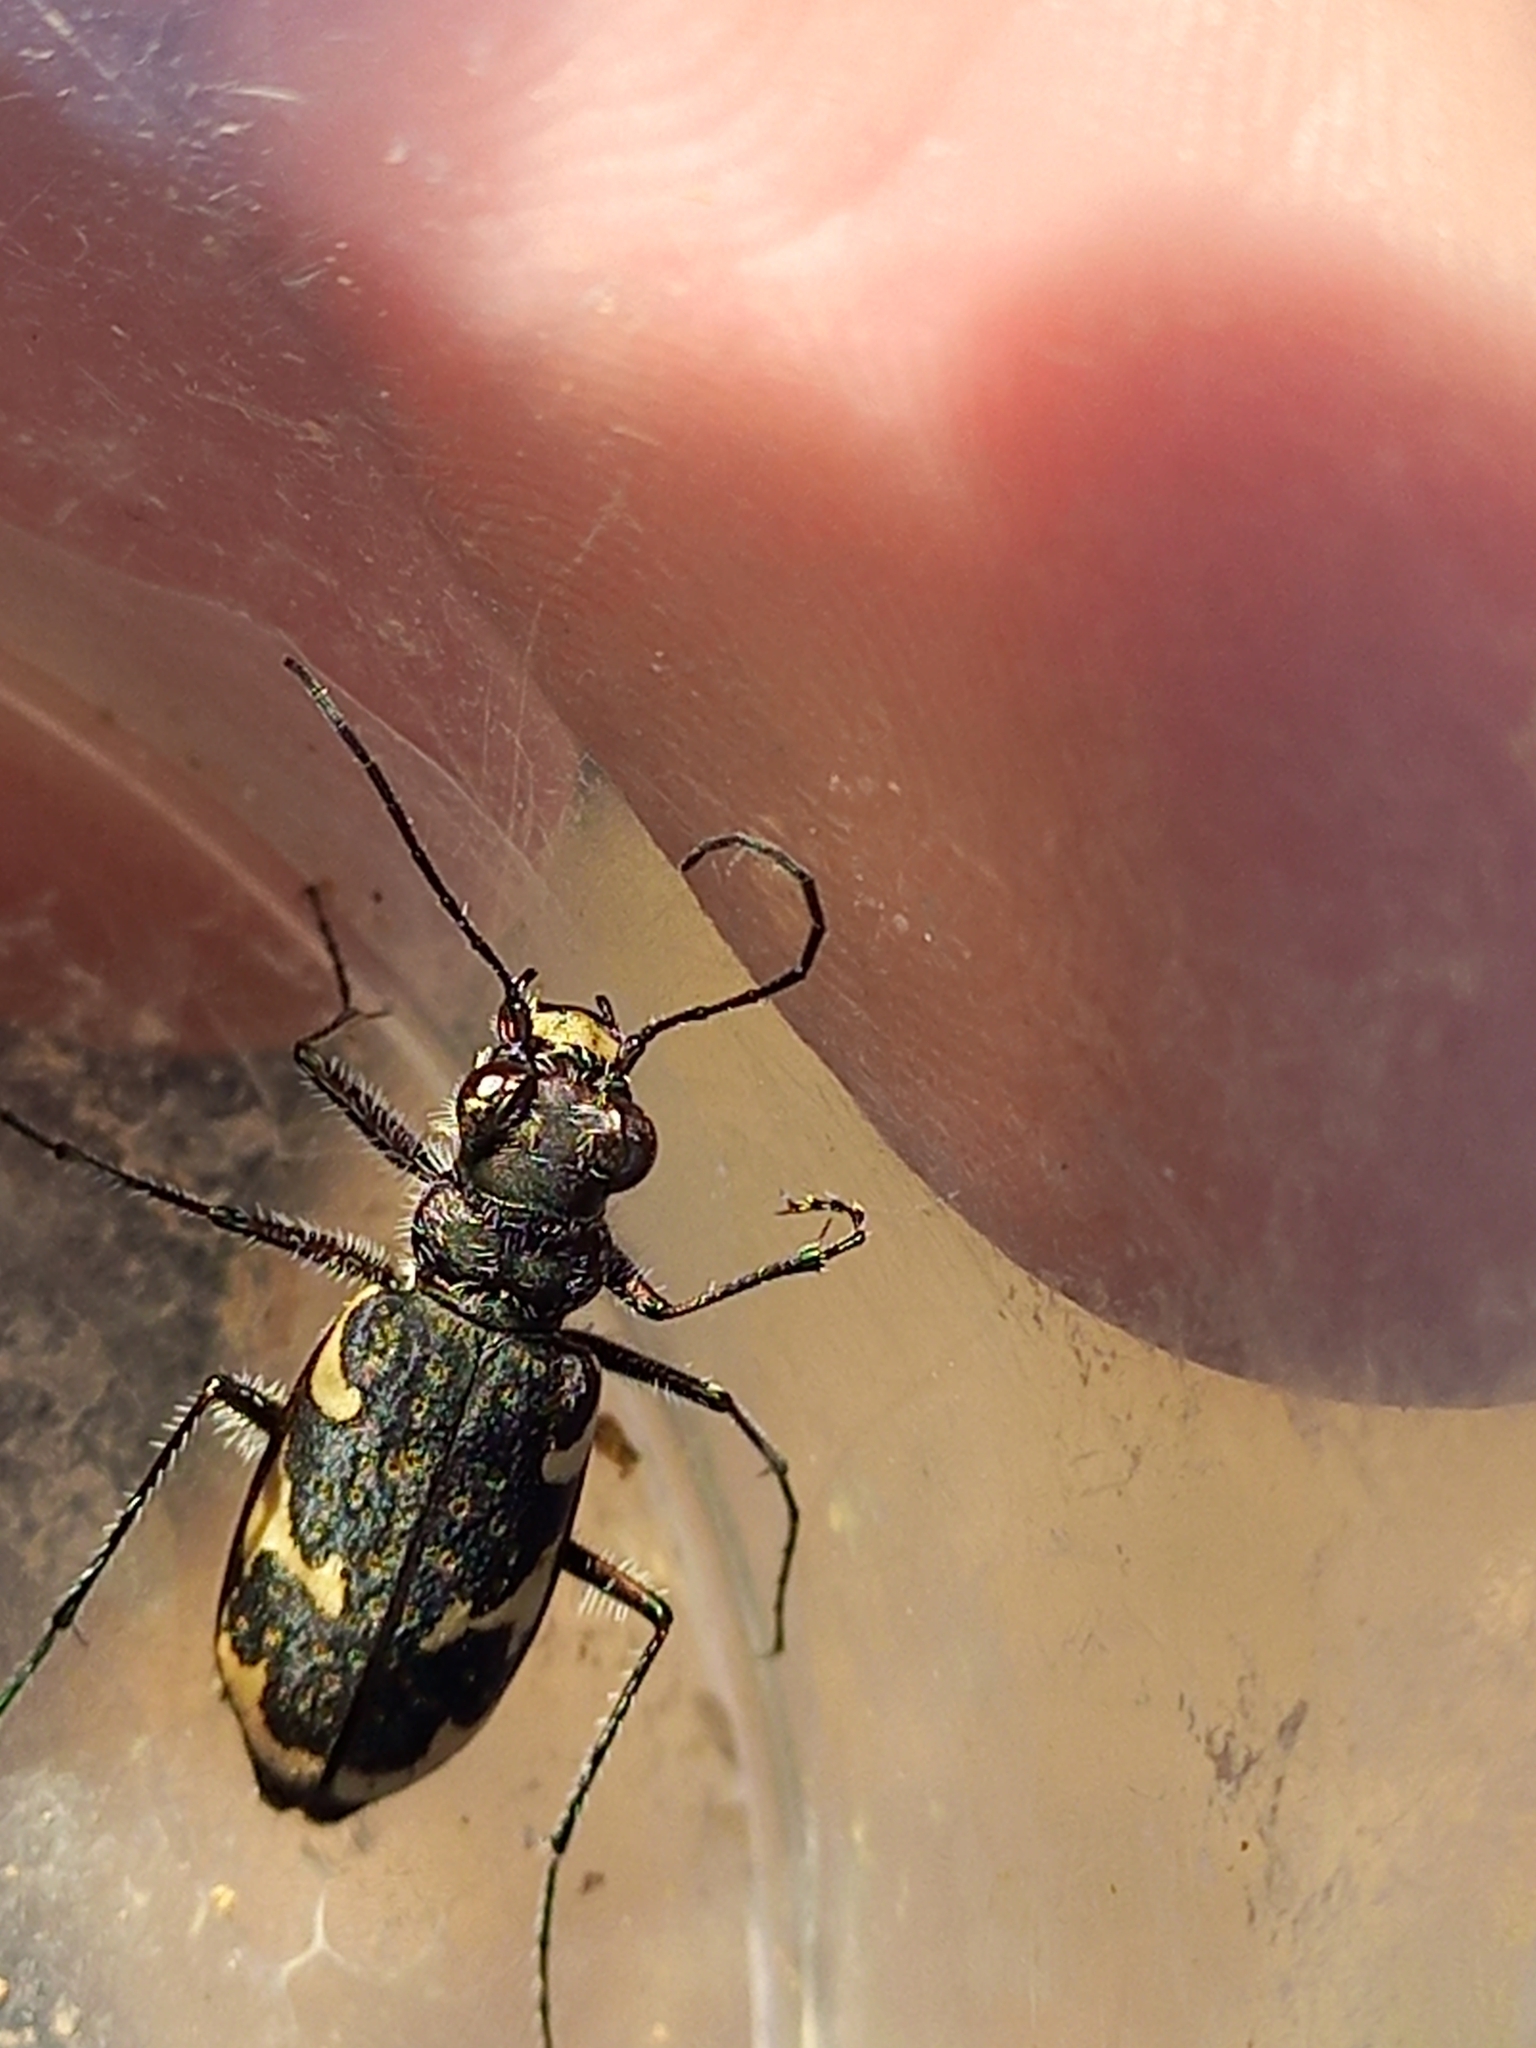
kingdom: Animalia
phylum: Arthropoda
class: Insecta
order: Coleoptera
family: Carabidae
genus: Zecicindela
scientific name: Zecicindela helmsi
